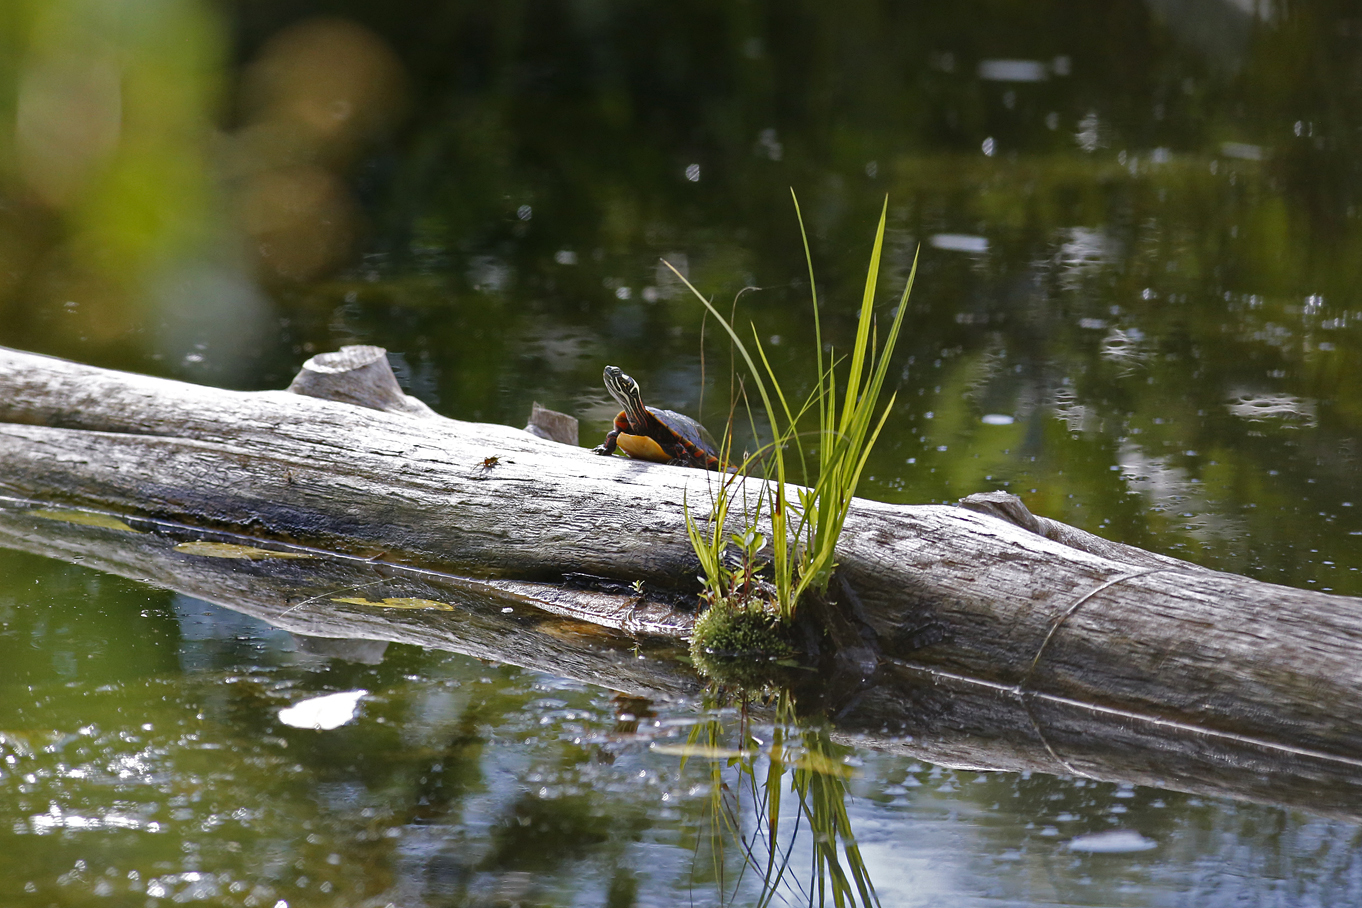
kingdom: Animalia
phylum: Chordata
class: Testudines
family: Emydidae
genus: Chrysemys
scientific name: Chrysemys picta
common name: Painted turtle
